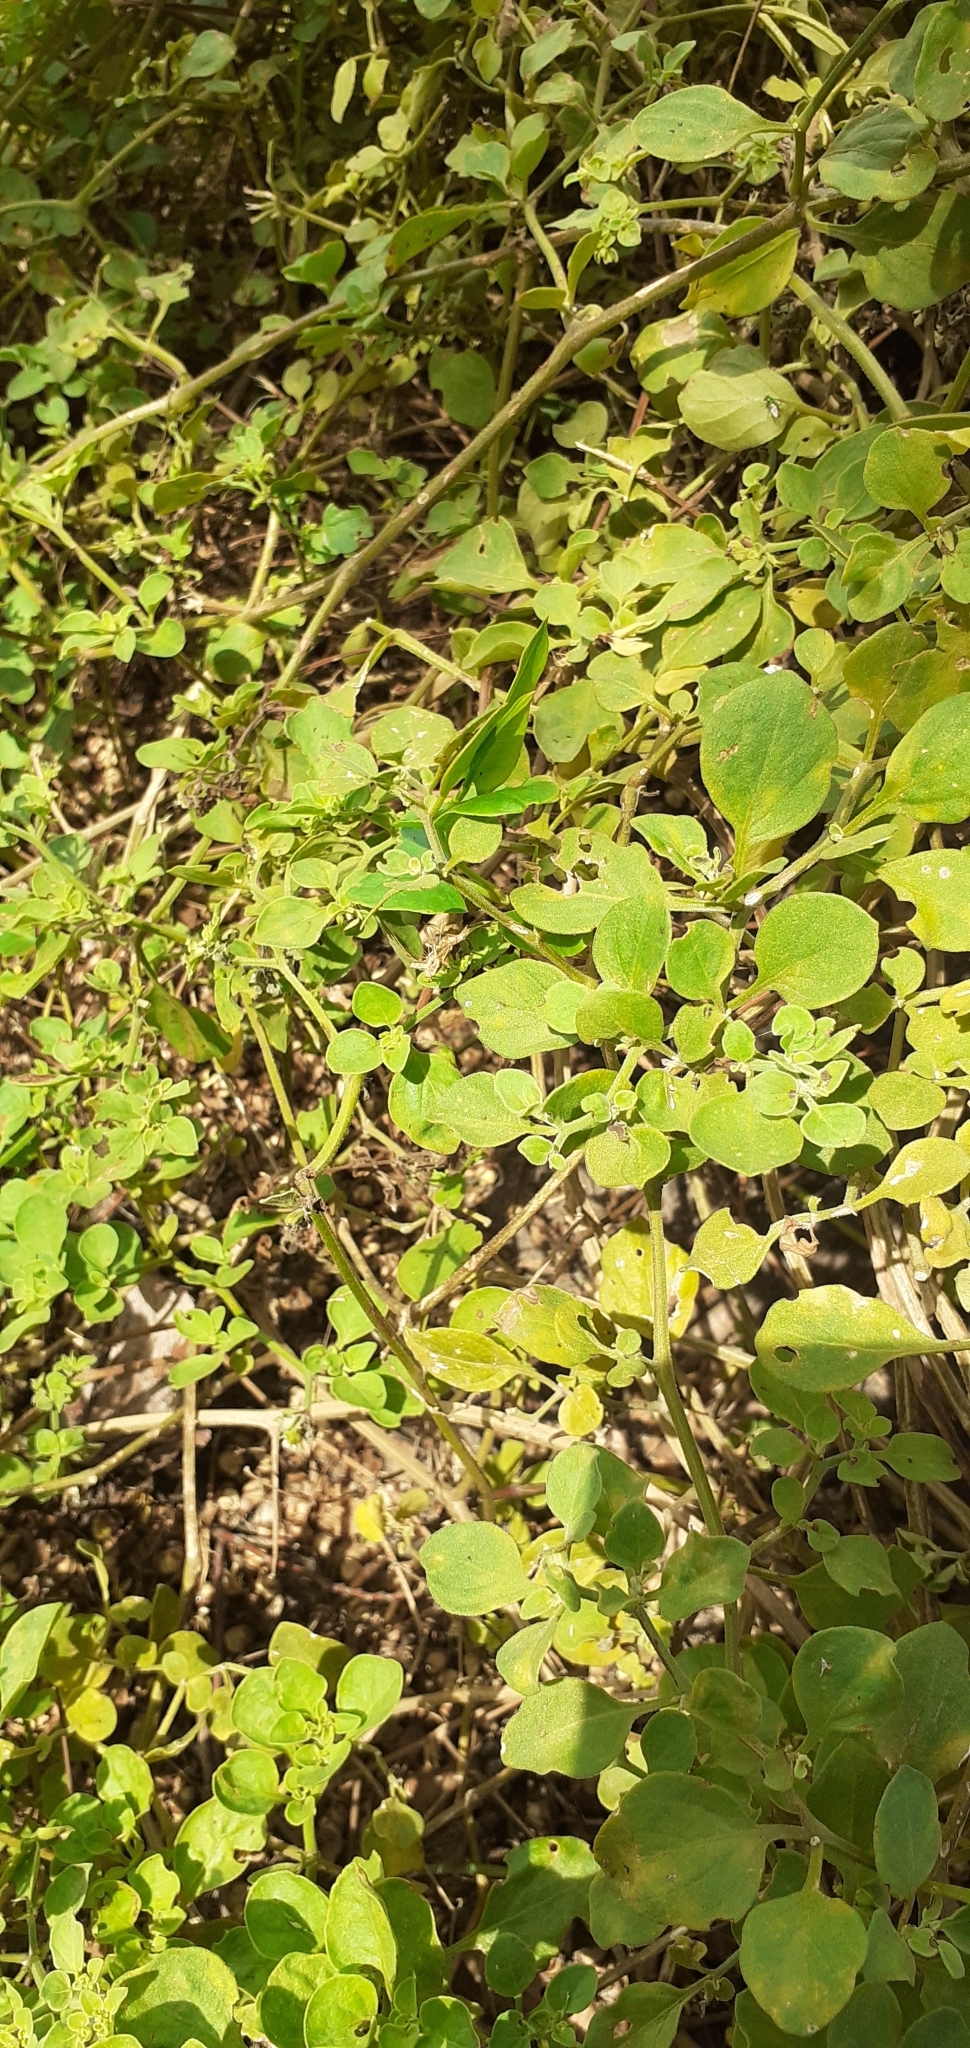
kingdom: Plantae
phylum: Tracheophyta
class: Magnoliopsida
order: Solanales
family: Solanaceae
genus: Salpichroa
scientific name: Salpichroa origanifolia
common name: Lily-of-the-valley-vine
